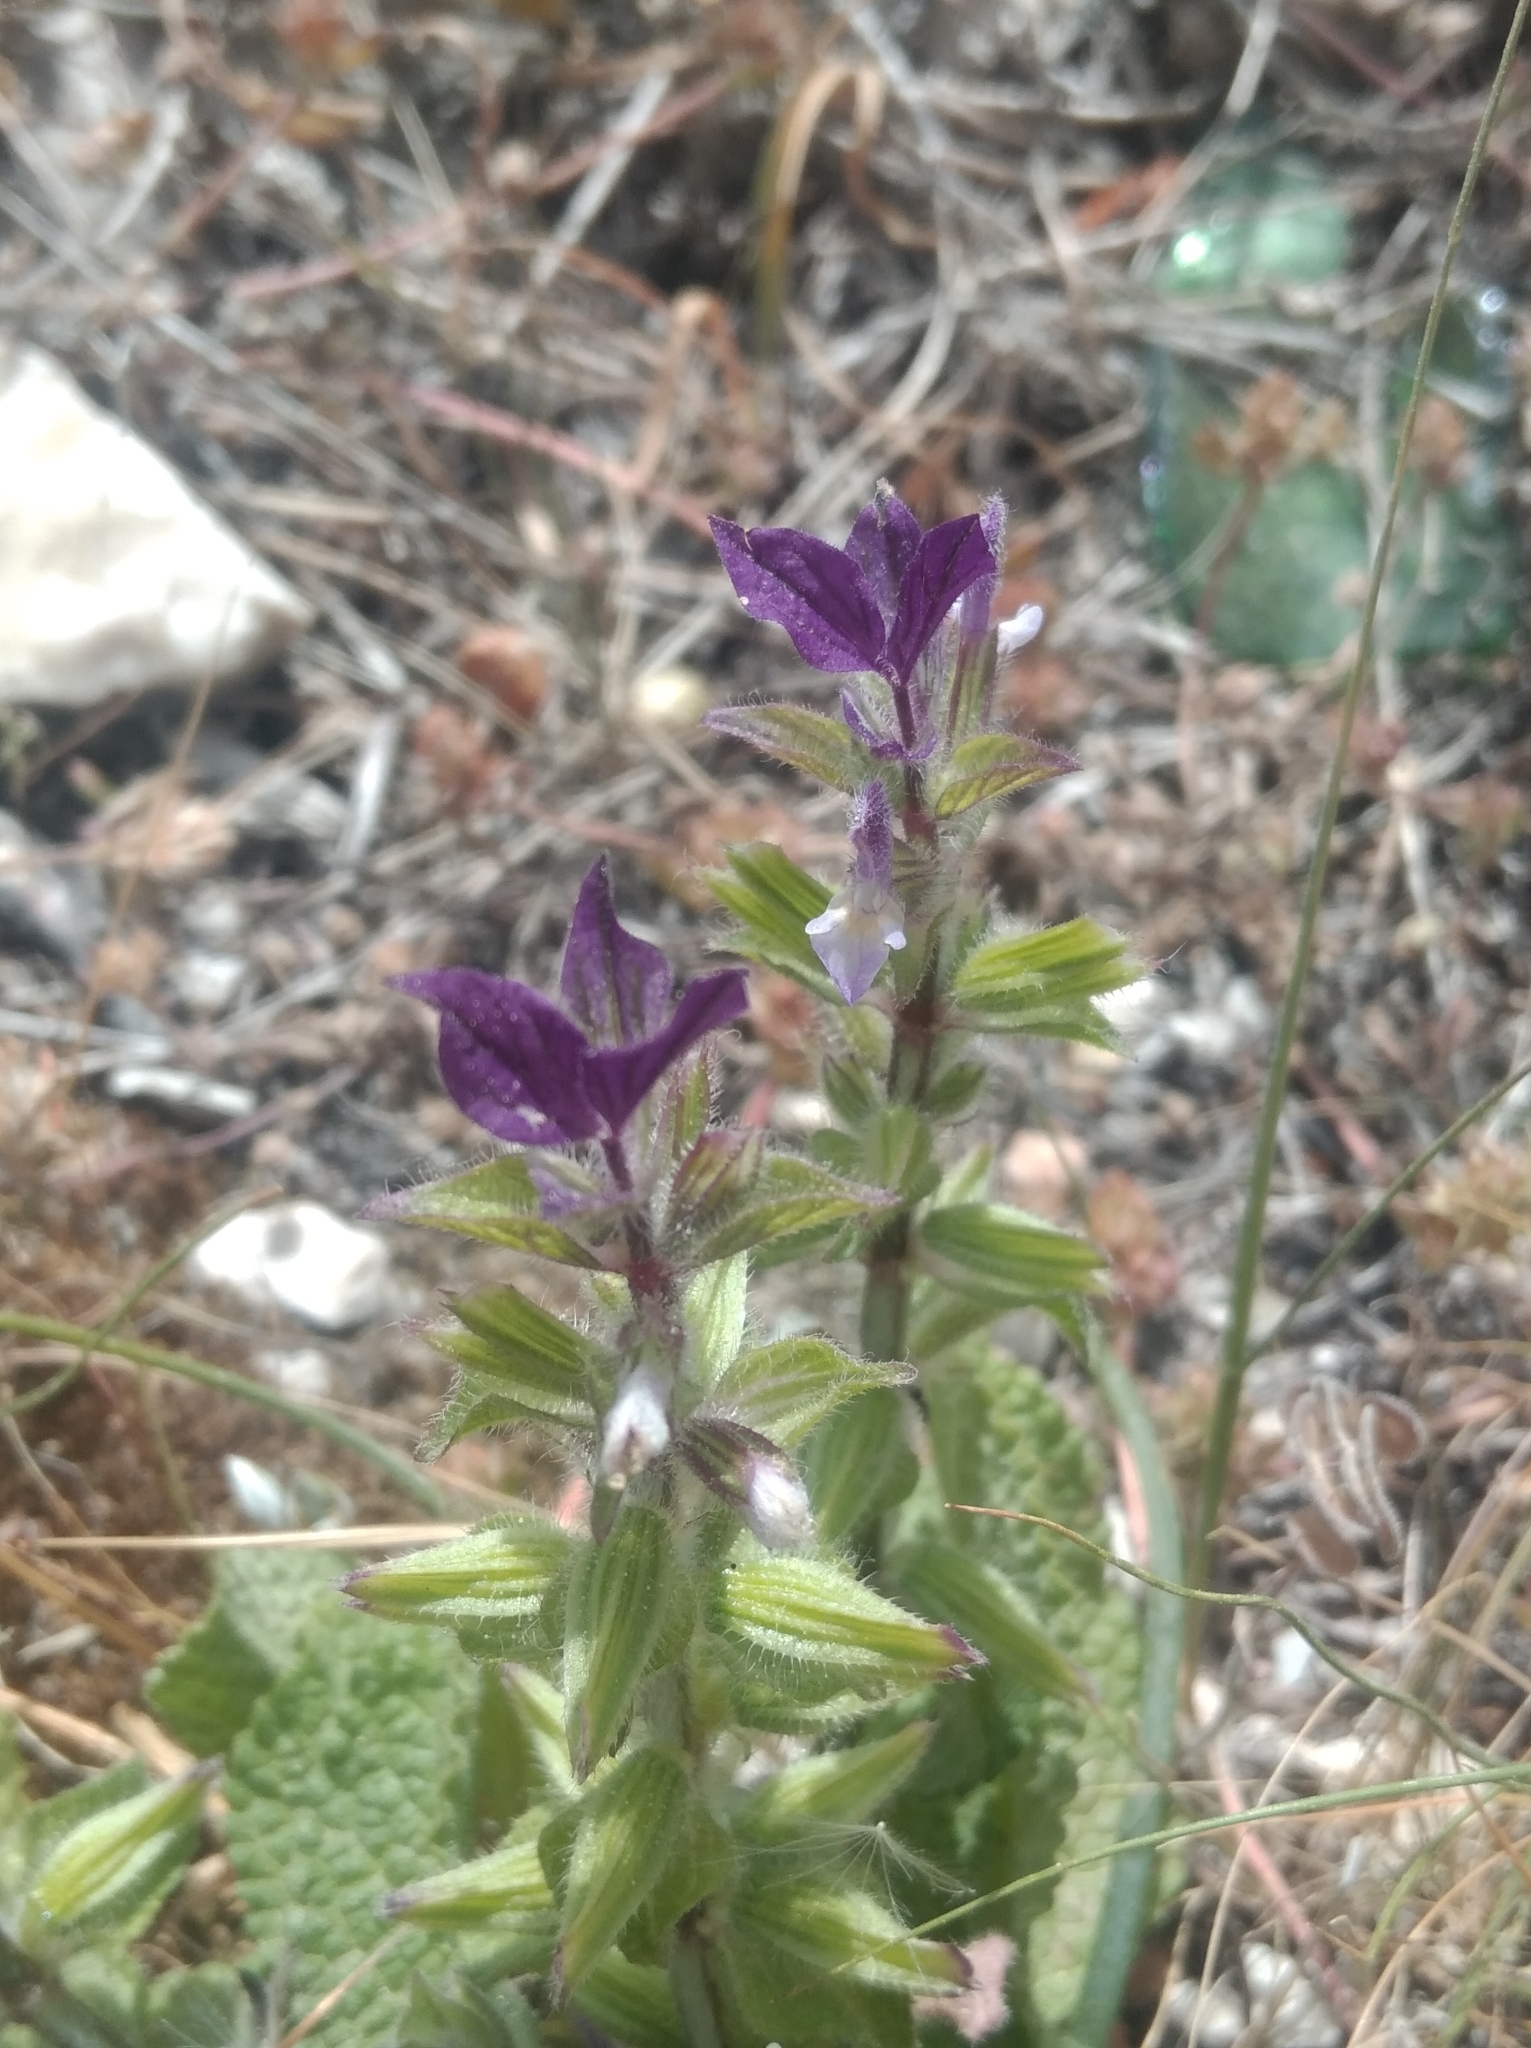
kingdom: Plantae
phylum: Tracheophyta
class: Magnoliopsida
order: Lamiales
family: Lamiaceae
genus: Salvia
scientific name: Salvia viridis
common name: Annual clary
